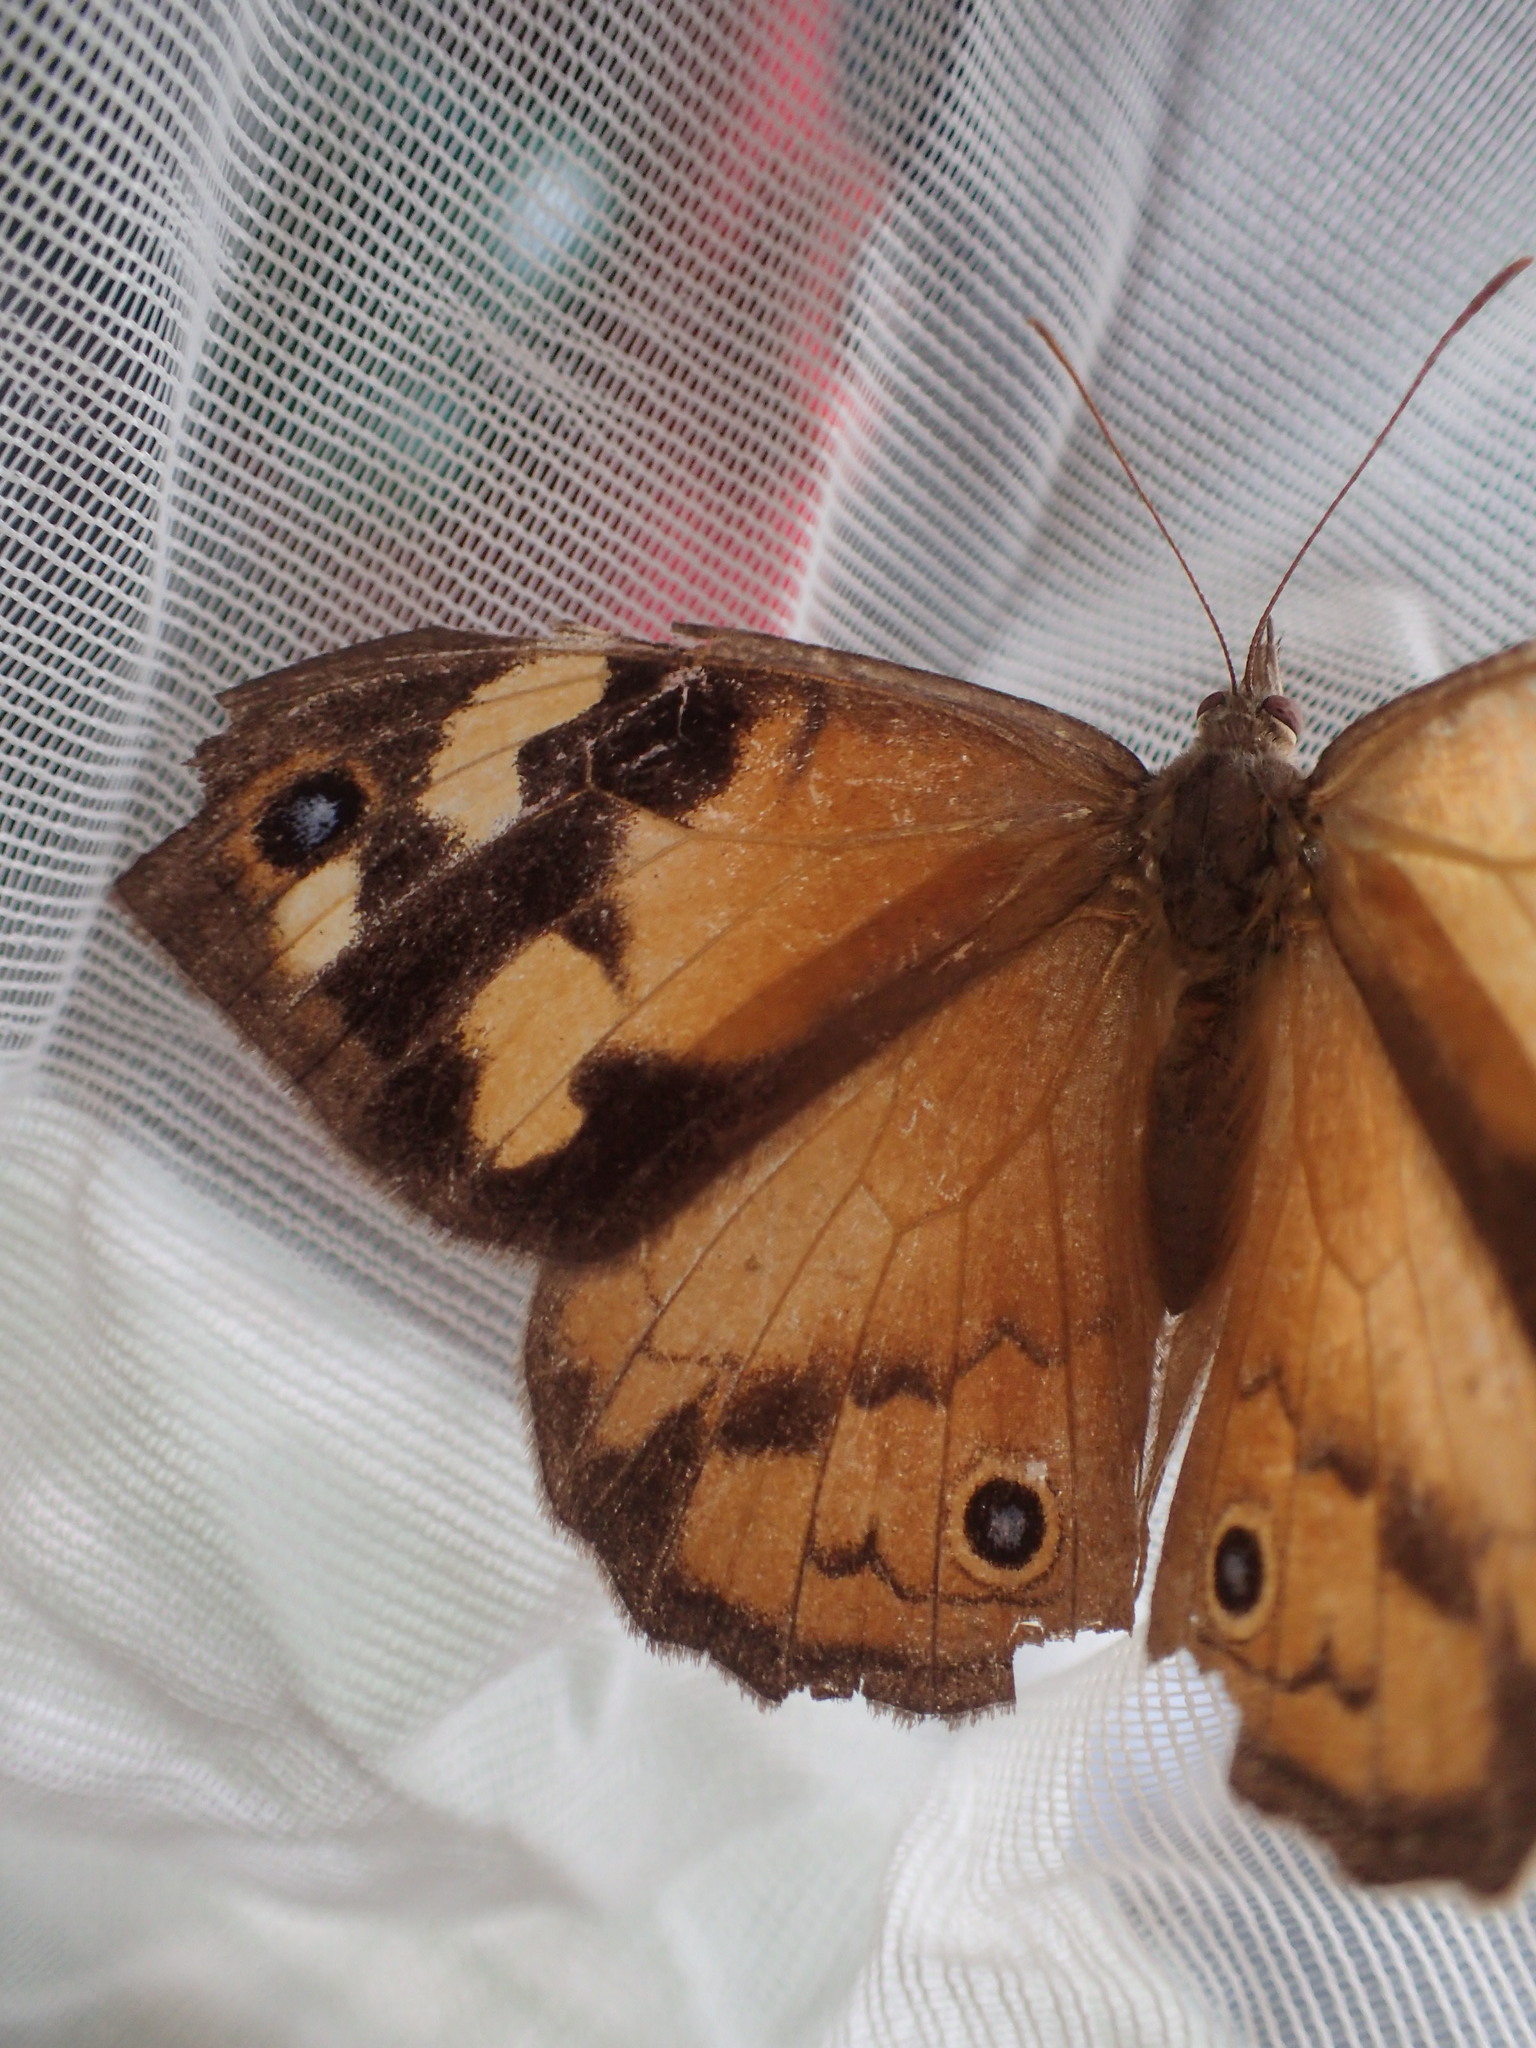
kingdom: Animalia
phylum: Arthropoda
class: Insecta
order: Lepidoptera
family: Nymphalidae
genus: Heteronympha
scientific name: Heteronympha merope
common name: Common brown
